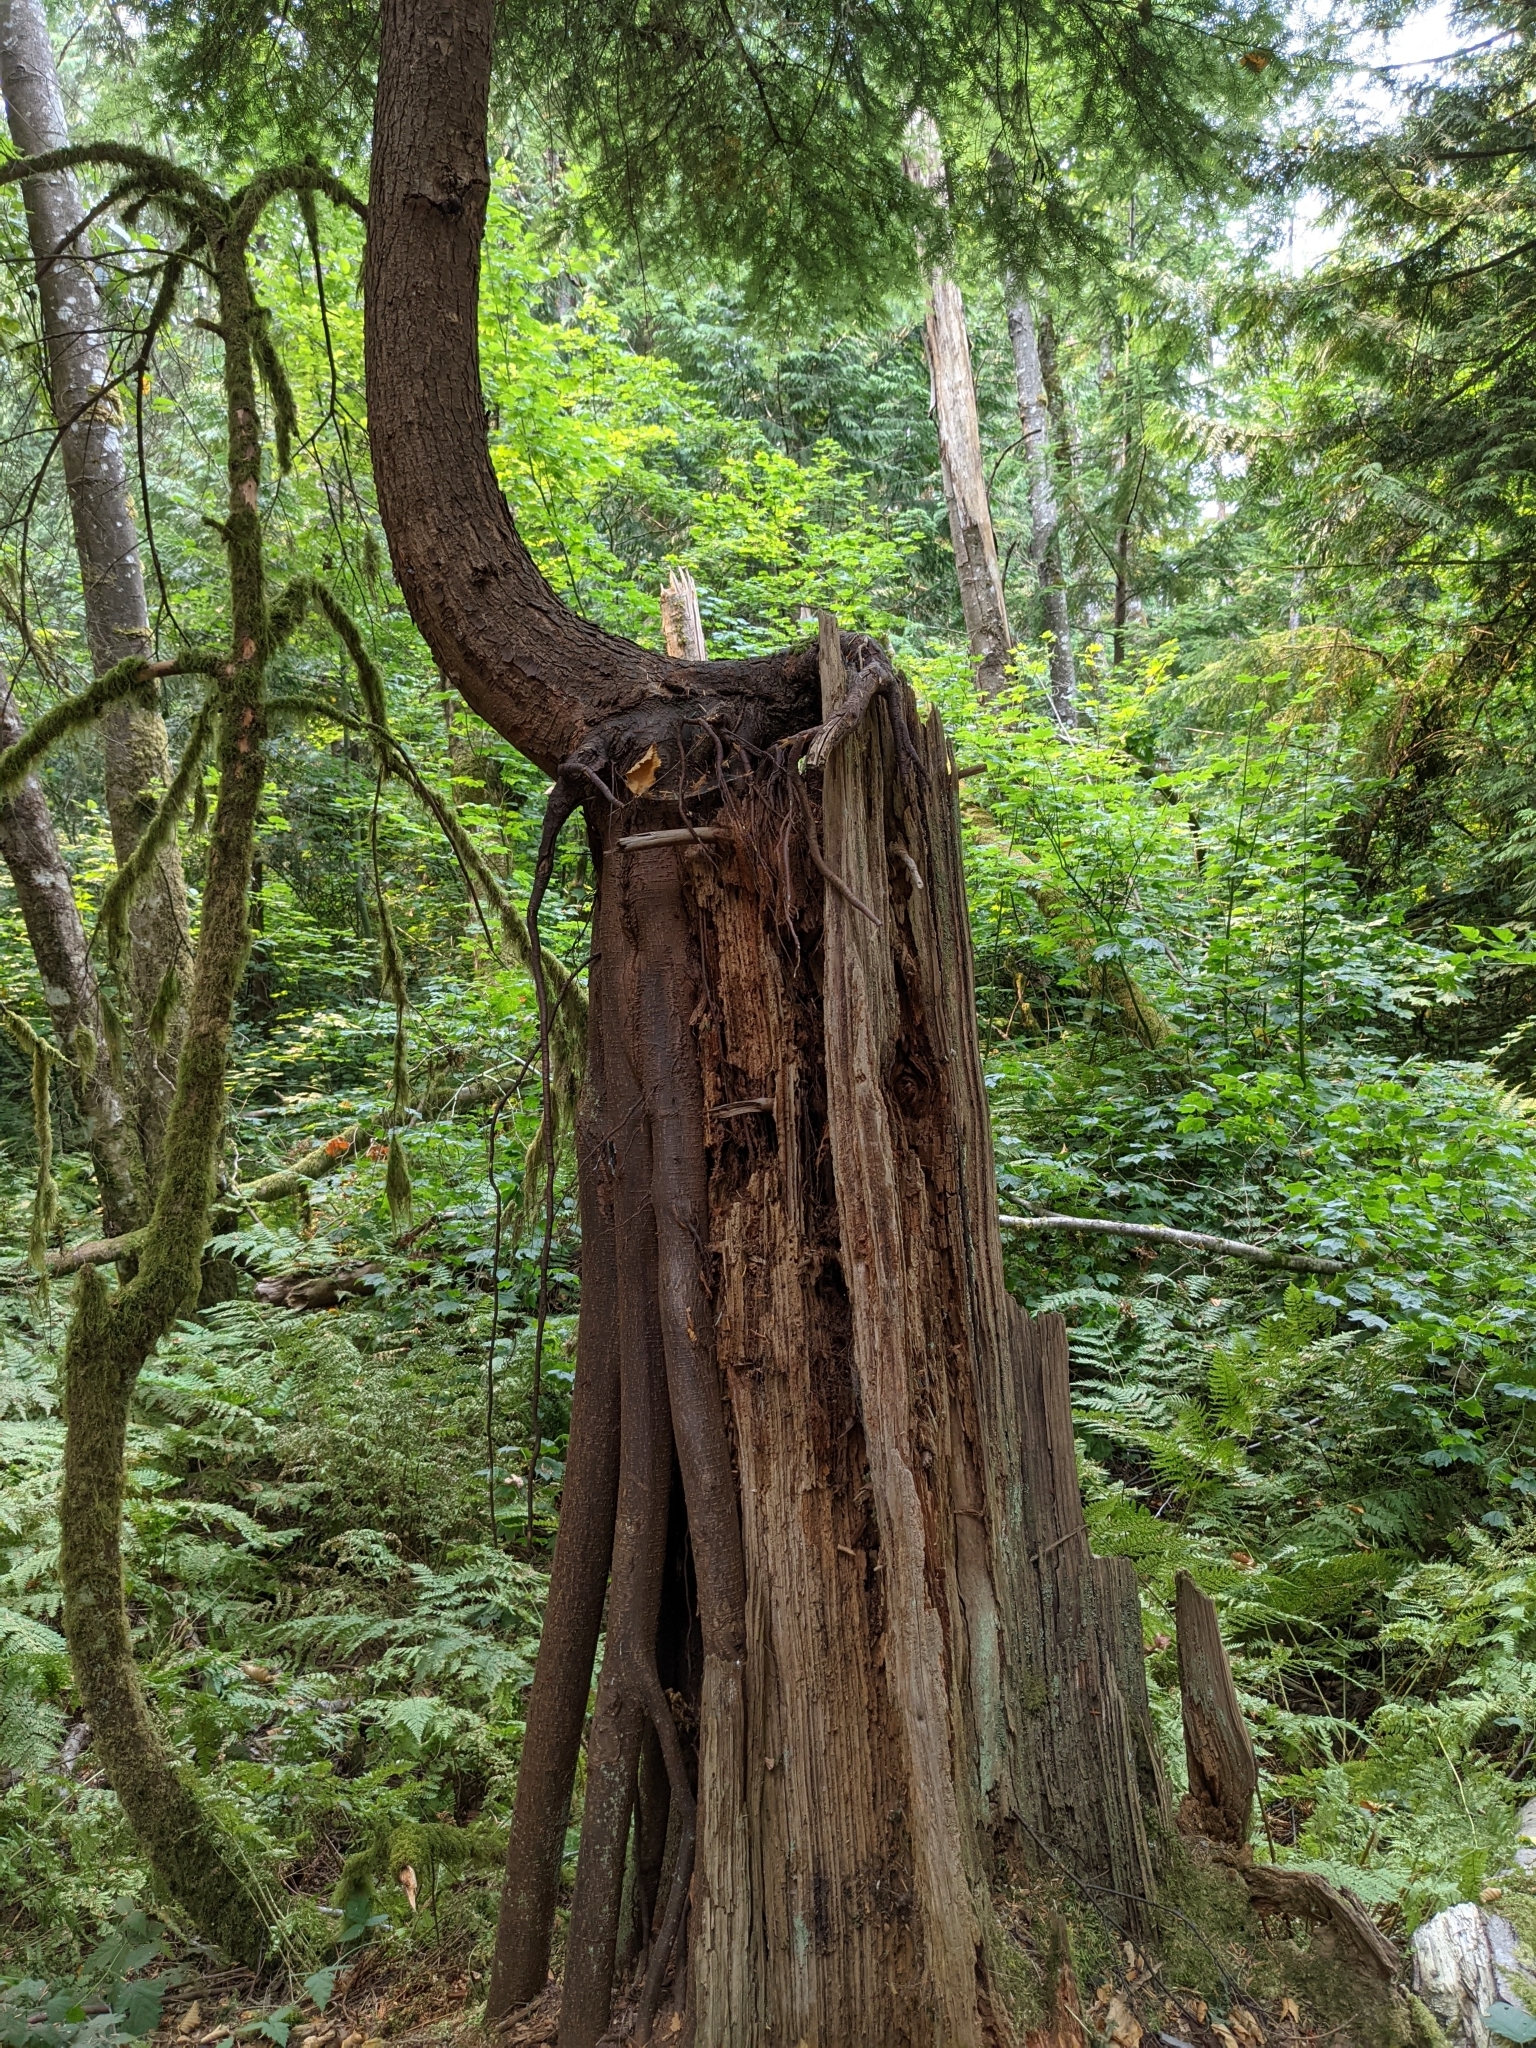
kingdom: Plantae
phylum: Tracheophyta
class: Pinopsida
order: Pinales
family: Pinaceae
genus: Tsuga
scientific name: Tsuga heterophylla
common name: Western hemlock
